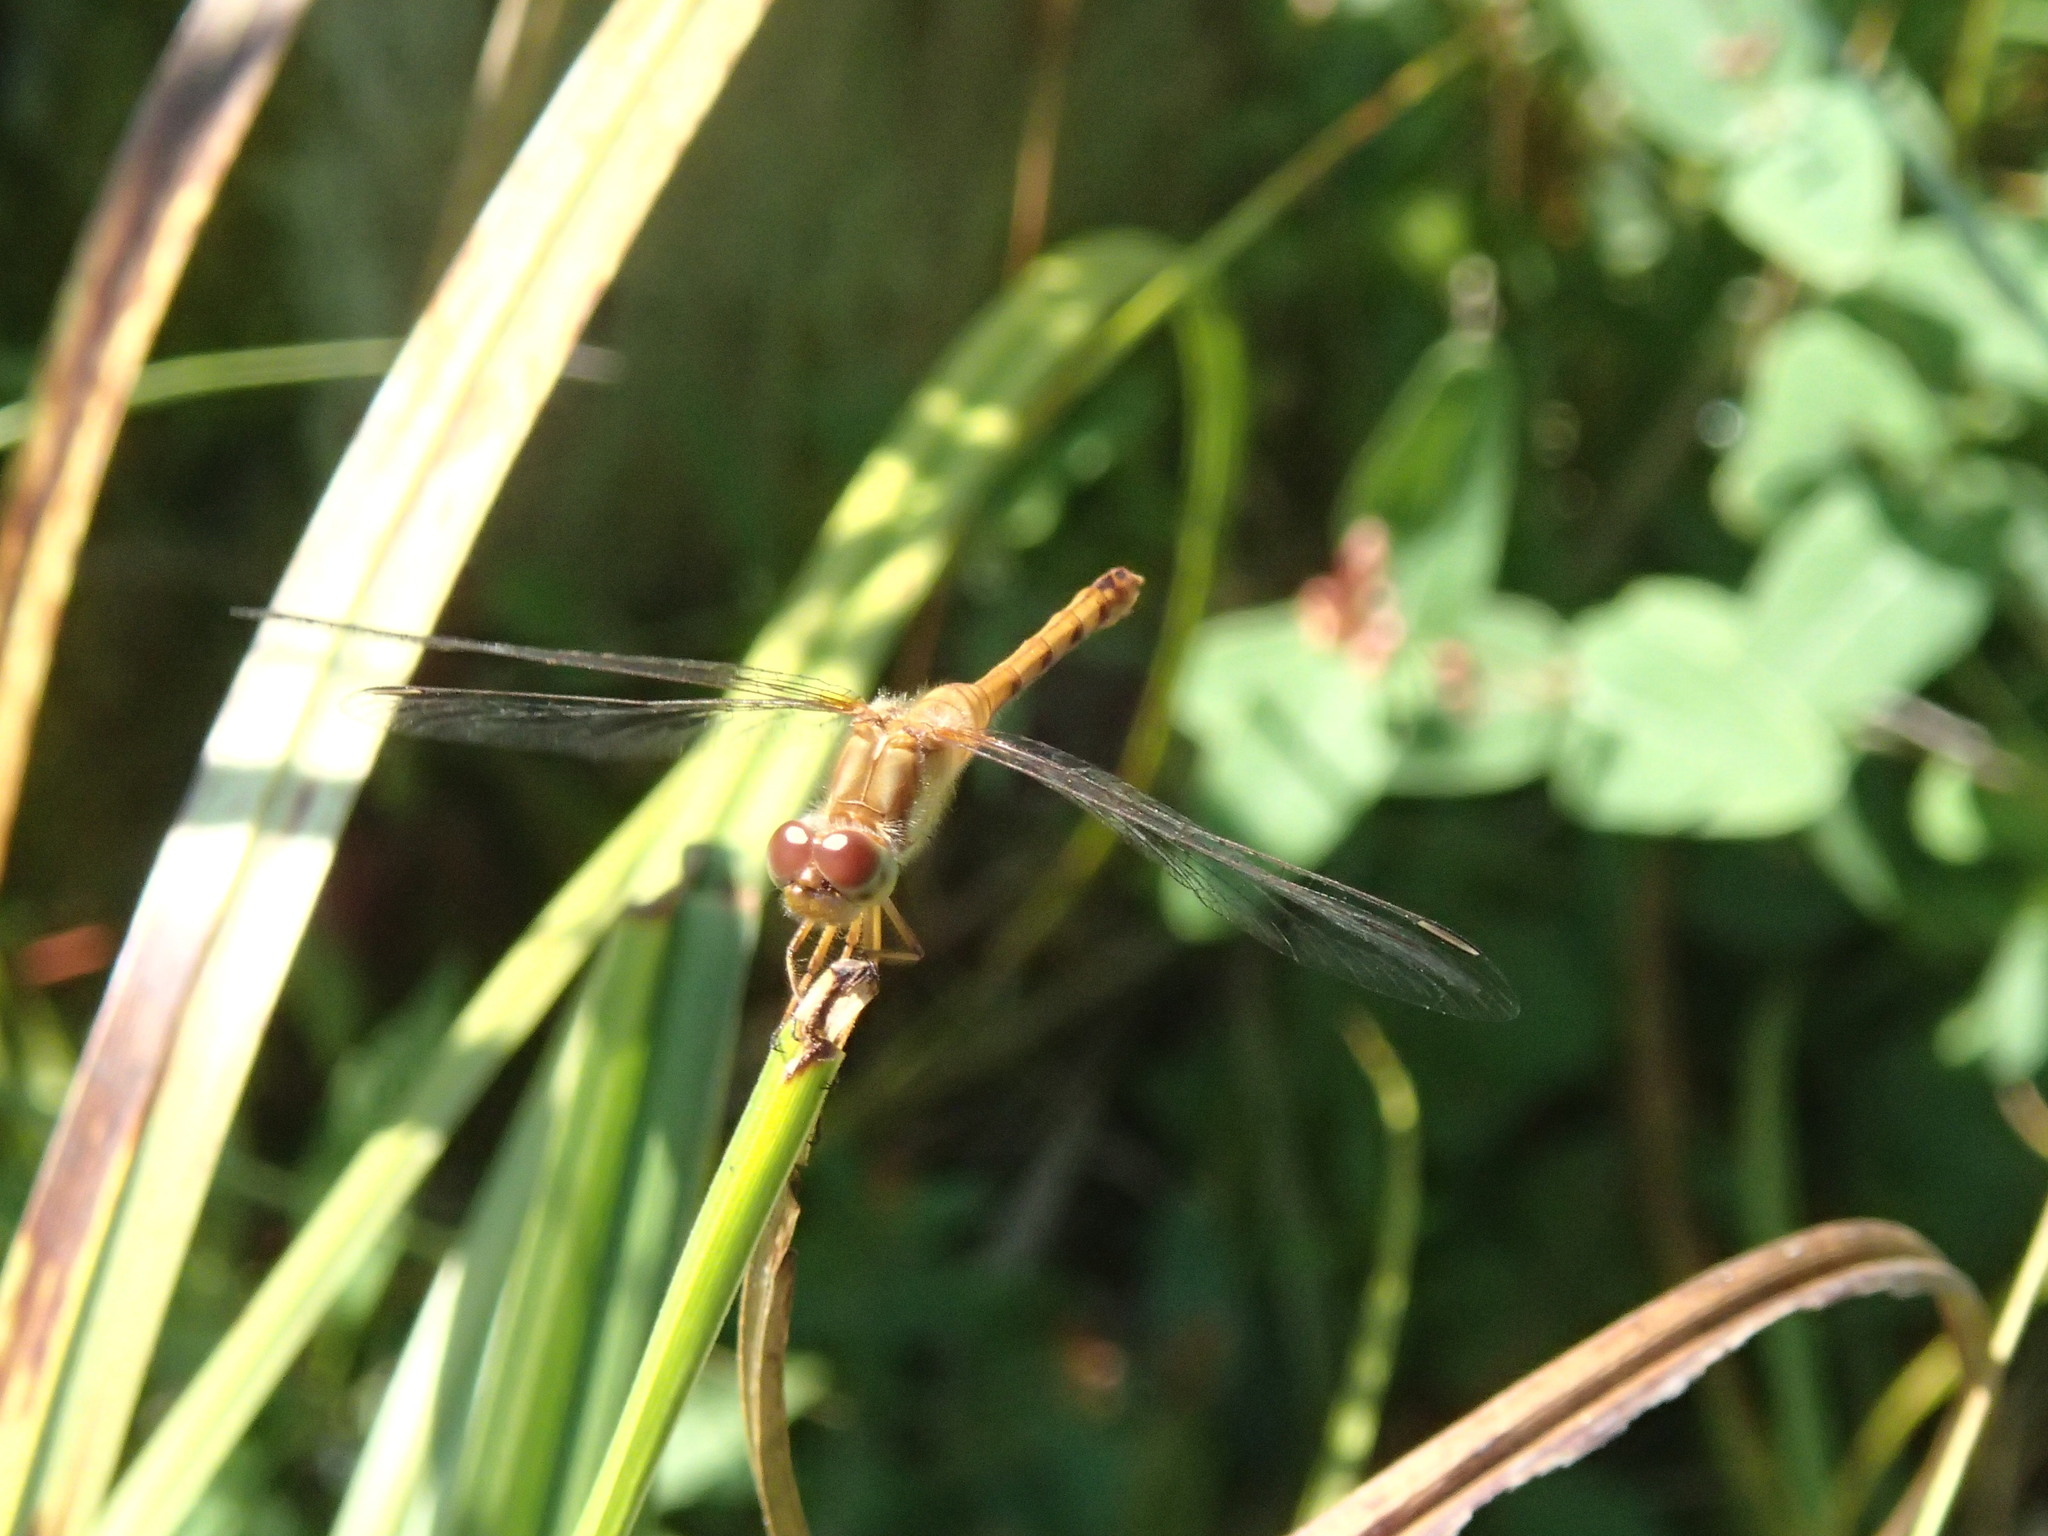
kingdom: Animalia
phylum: Arthropoda
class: Insecta
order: Odonata
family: Libellulidae
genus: Sympetrum
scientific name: Sympetrum vicinum
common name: Autumn meadowhawk
